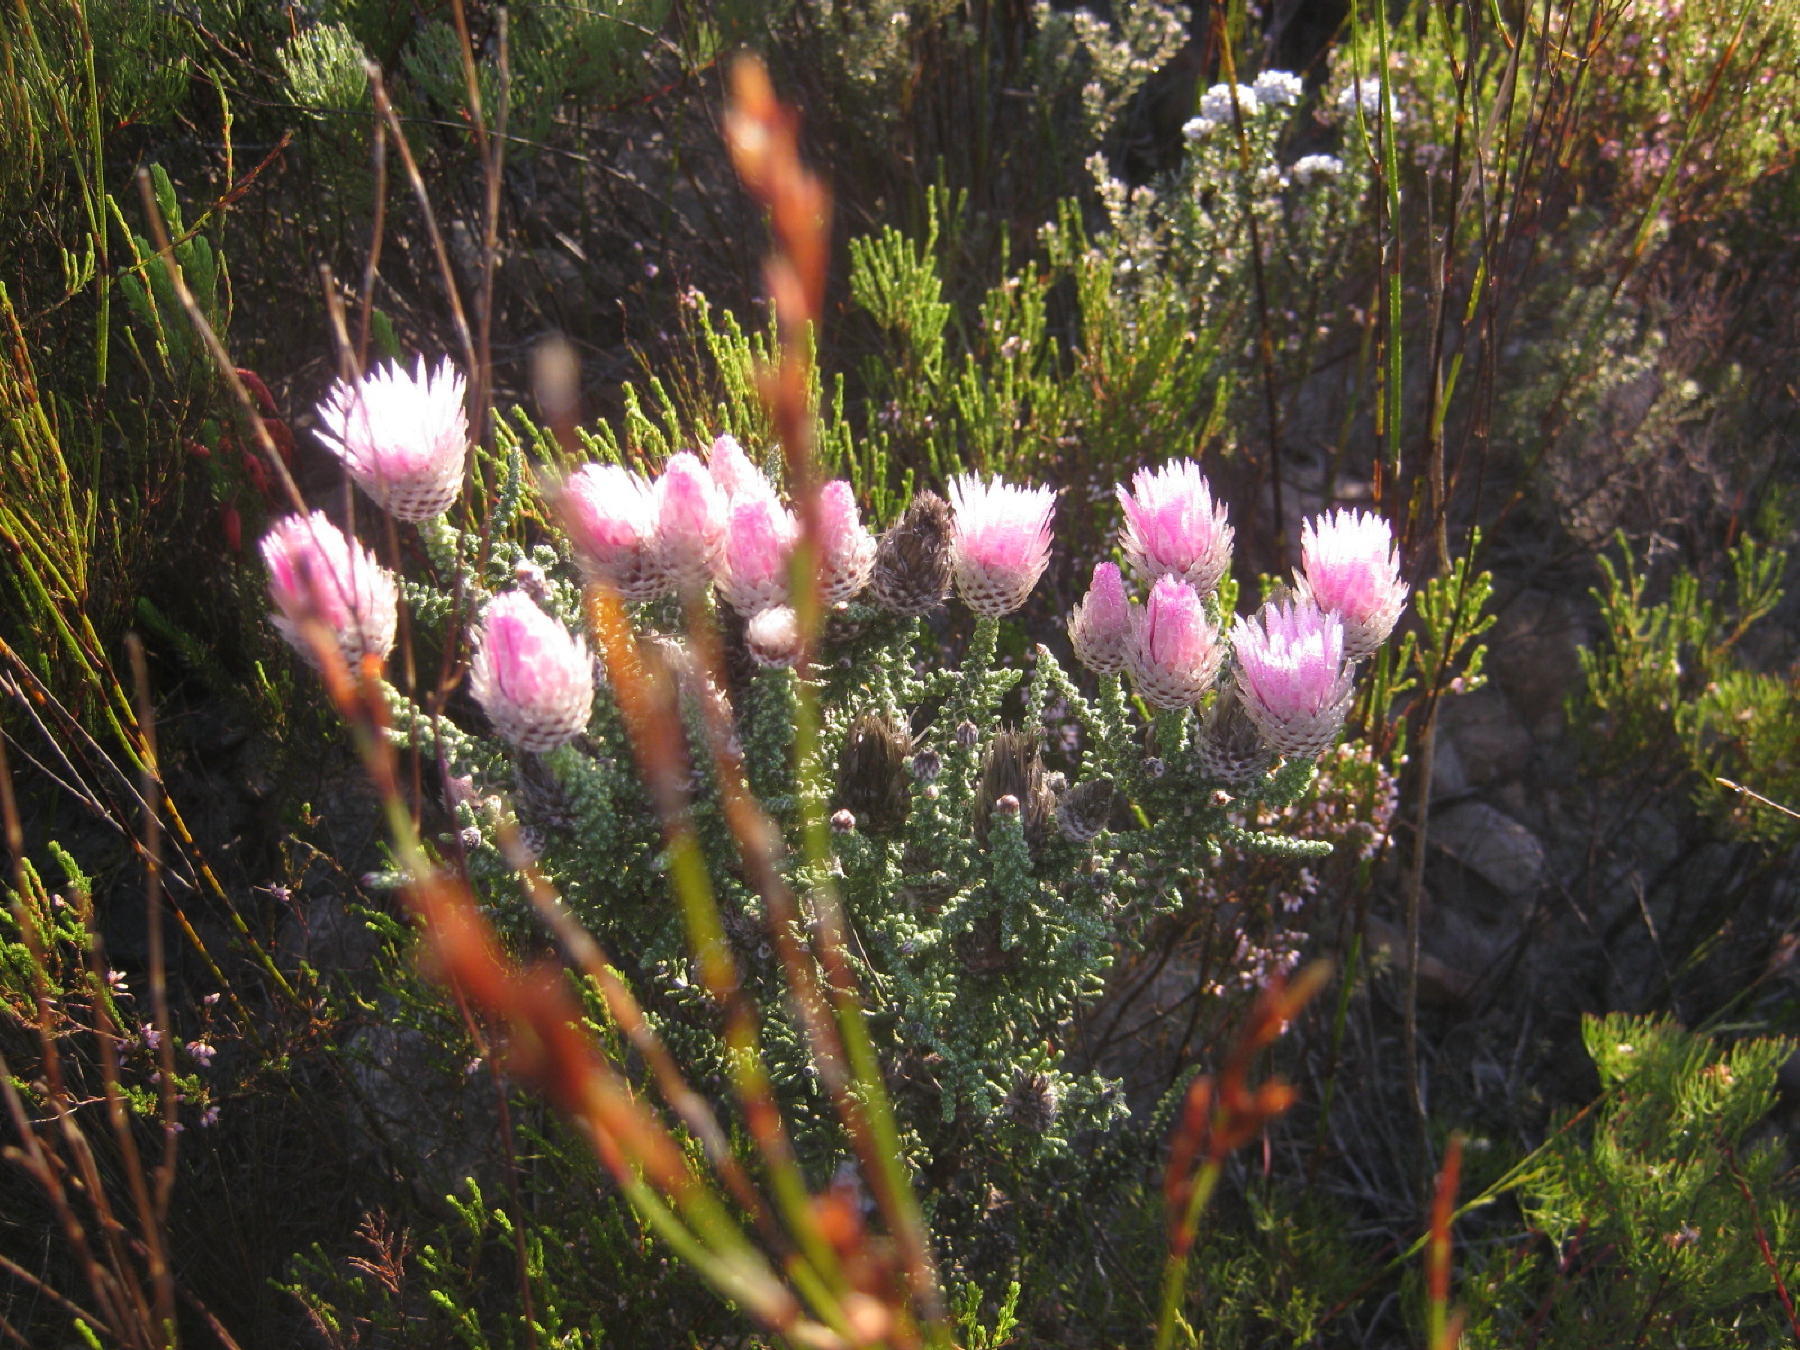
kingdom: Plantae
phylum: Tracheophyta
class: Magnoliopsida
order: Asterales
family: Asteraceae
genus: Phaenocoma
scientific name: Phaenocoma prolifera
